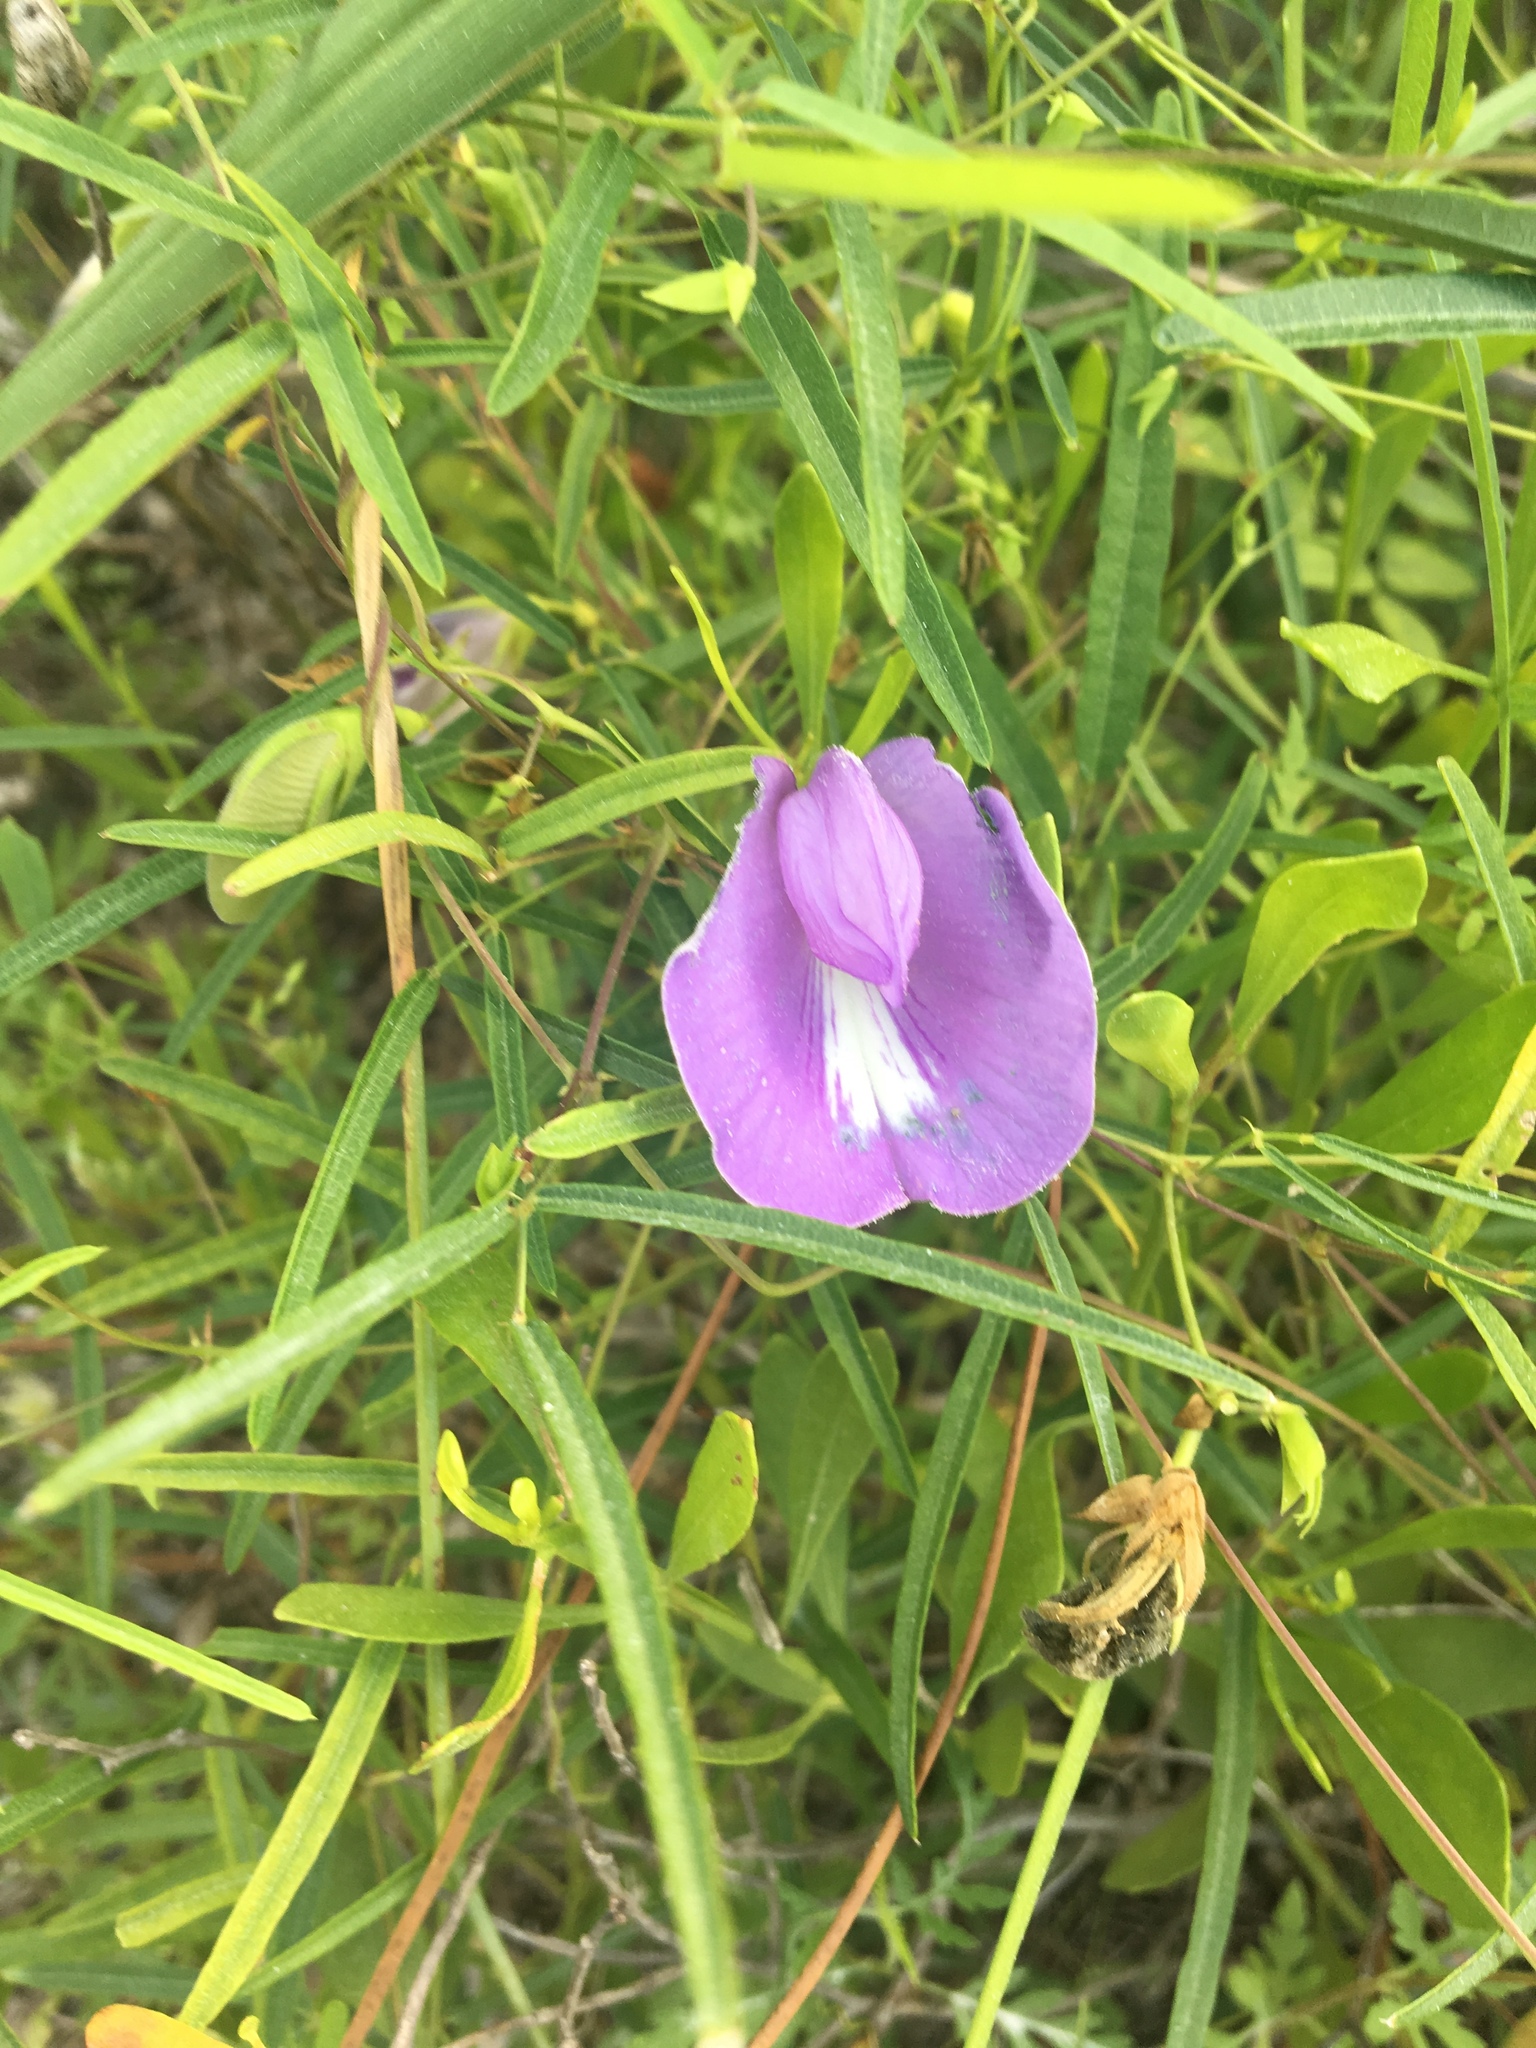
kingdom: Plantae
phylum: Tracheophyta
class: Magnoliopsida
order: Fabales
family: Fabaceae
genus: Centrosema
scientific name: Centrosema virginianum
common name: Butterfly-pea
